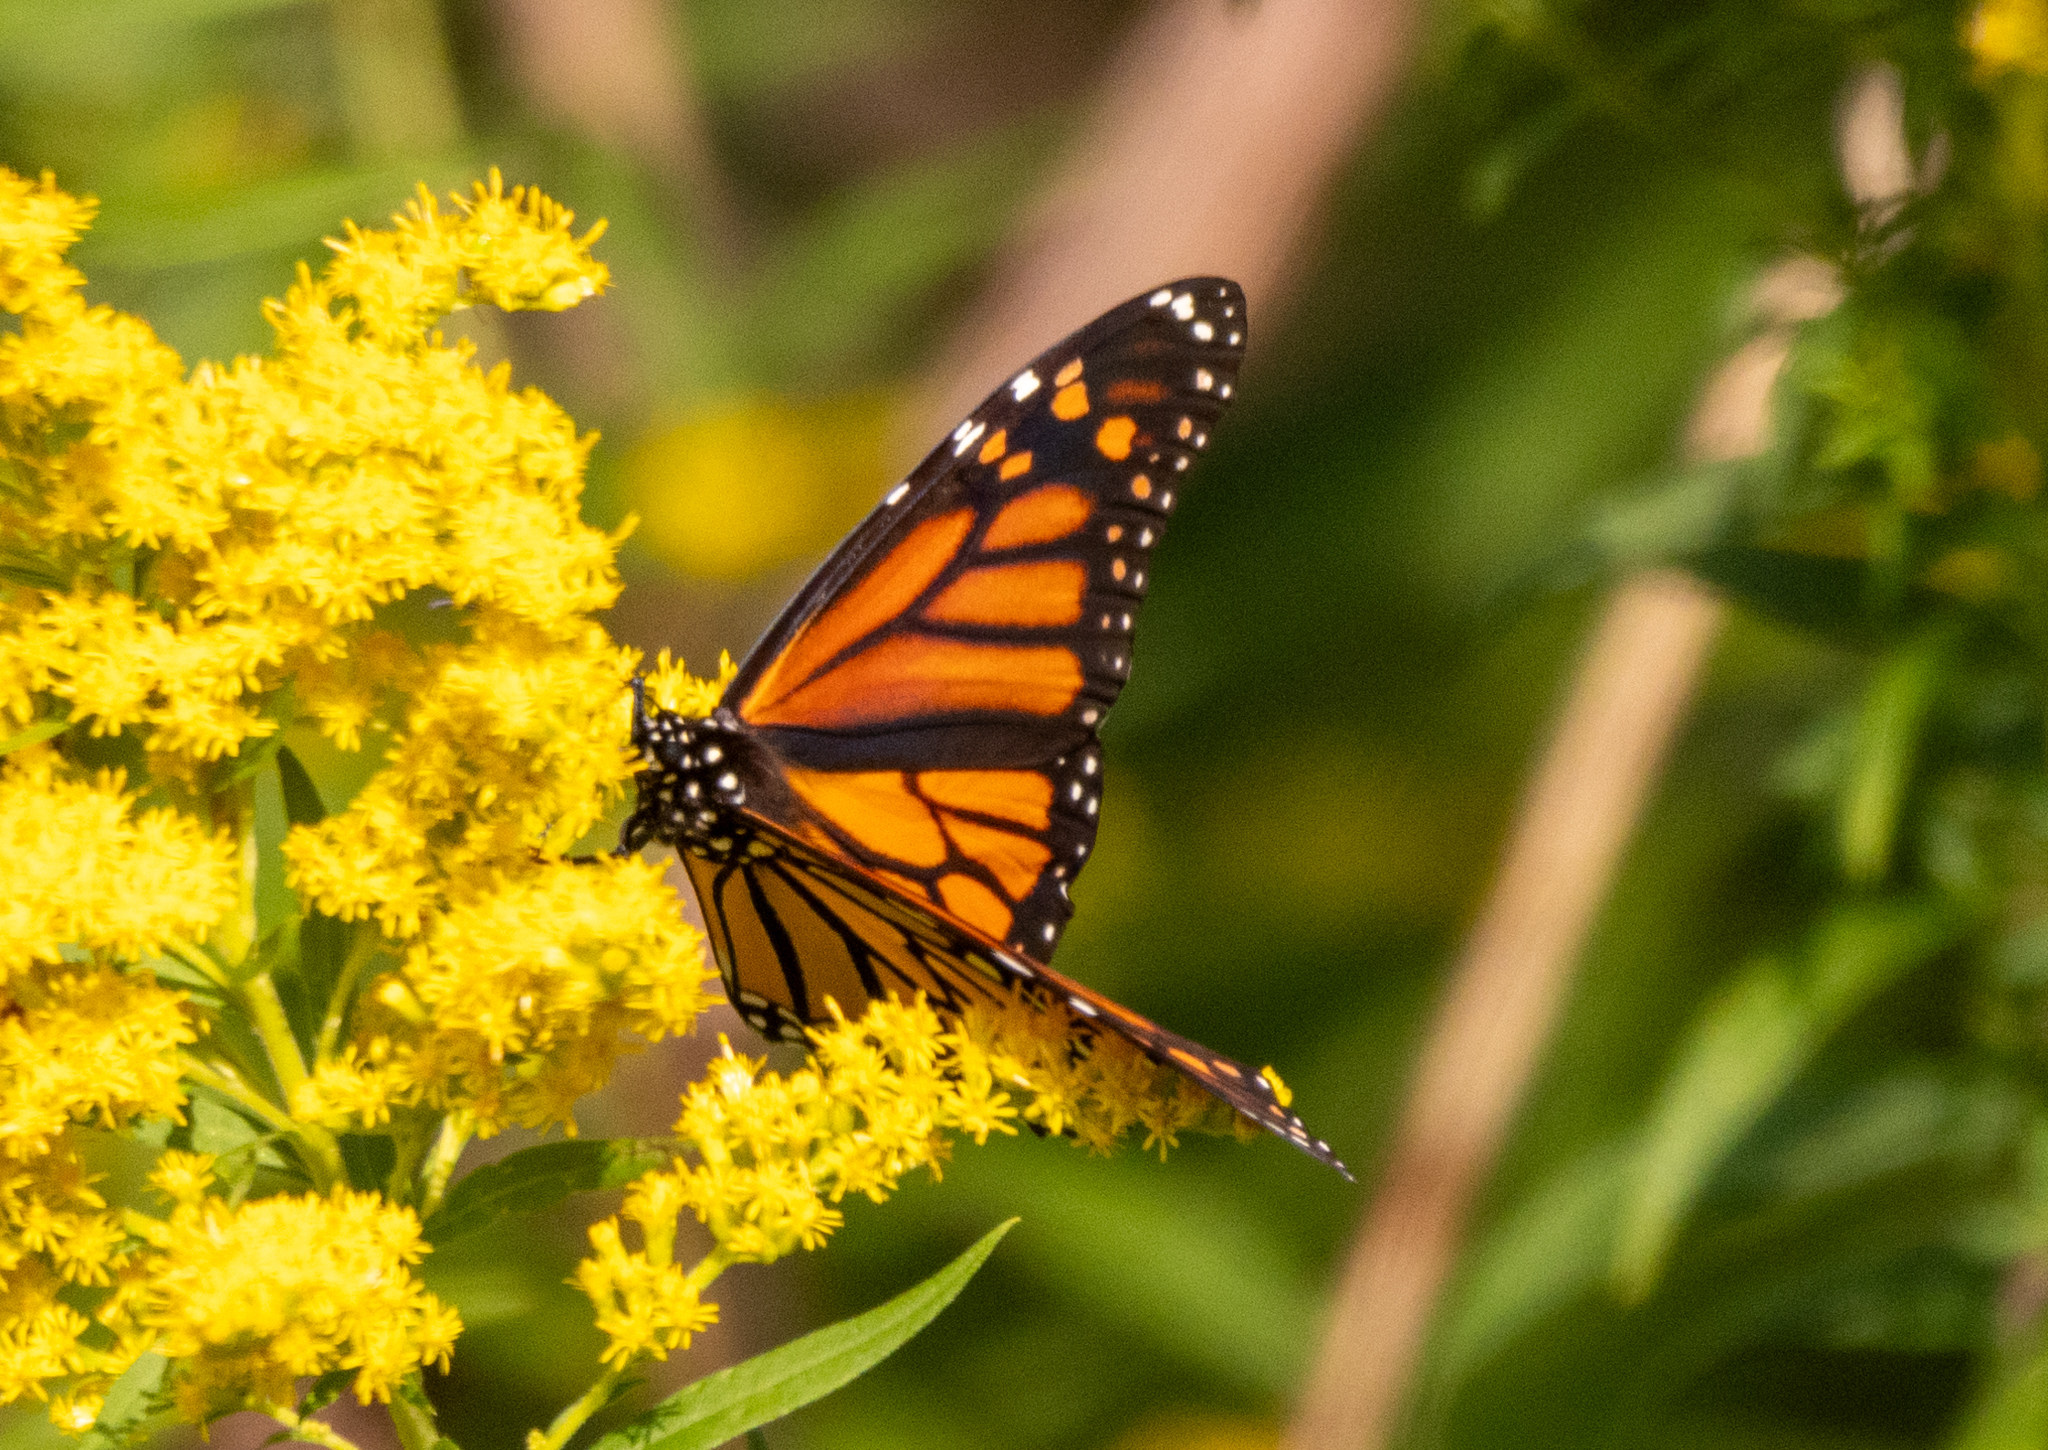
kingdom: Animalia
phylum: Arthropoda
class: Insecta
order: Lepidoptera
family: Nymphalidae
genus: Danaus
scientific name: Danaus plexippus
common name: Monarch
